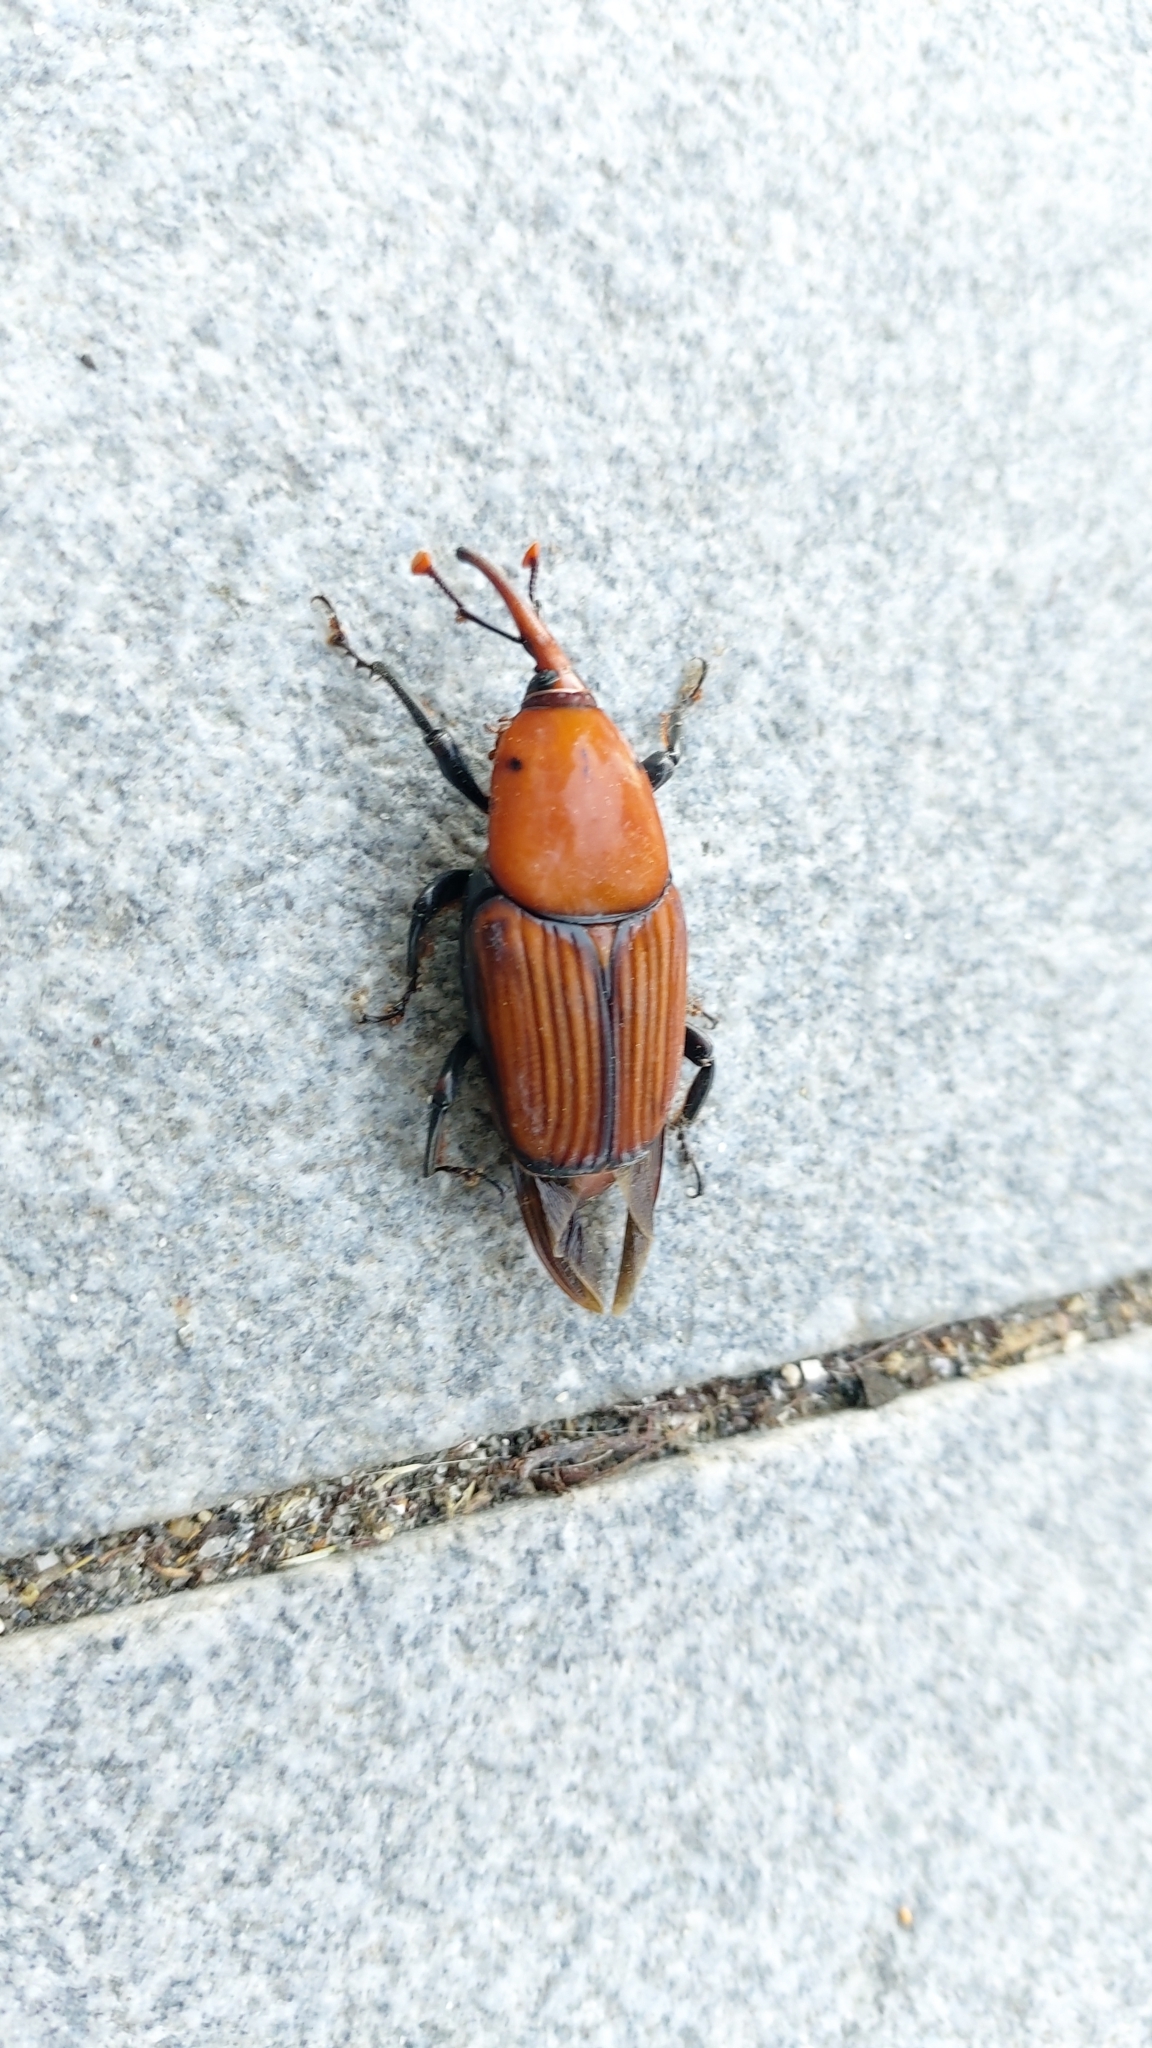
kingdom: Animalia
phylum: Arthropoda
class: Insecta
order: Coleoptera
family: Dryophthoridae
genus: Rhynchophorus
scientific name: Rhynchophorus ferrugineus
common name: Red palm weevil
